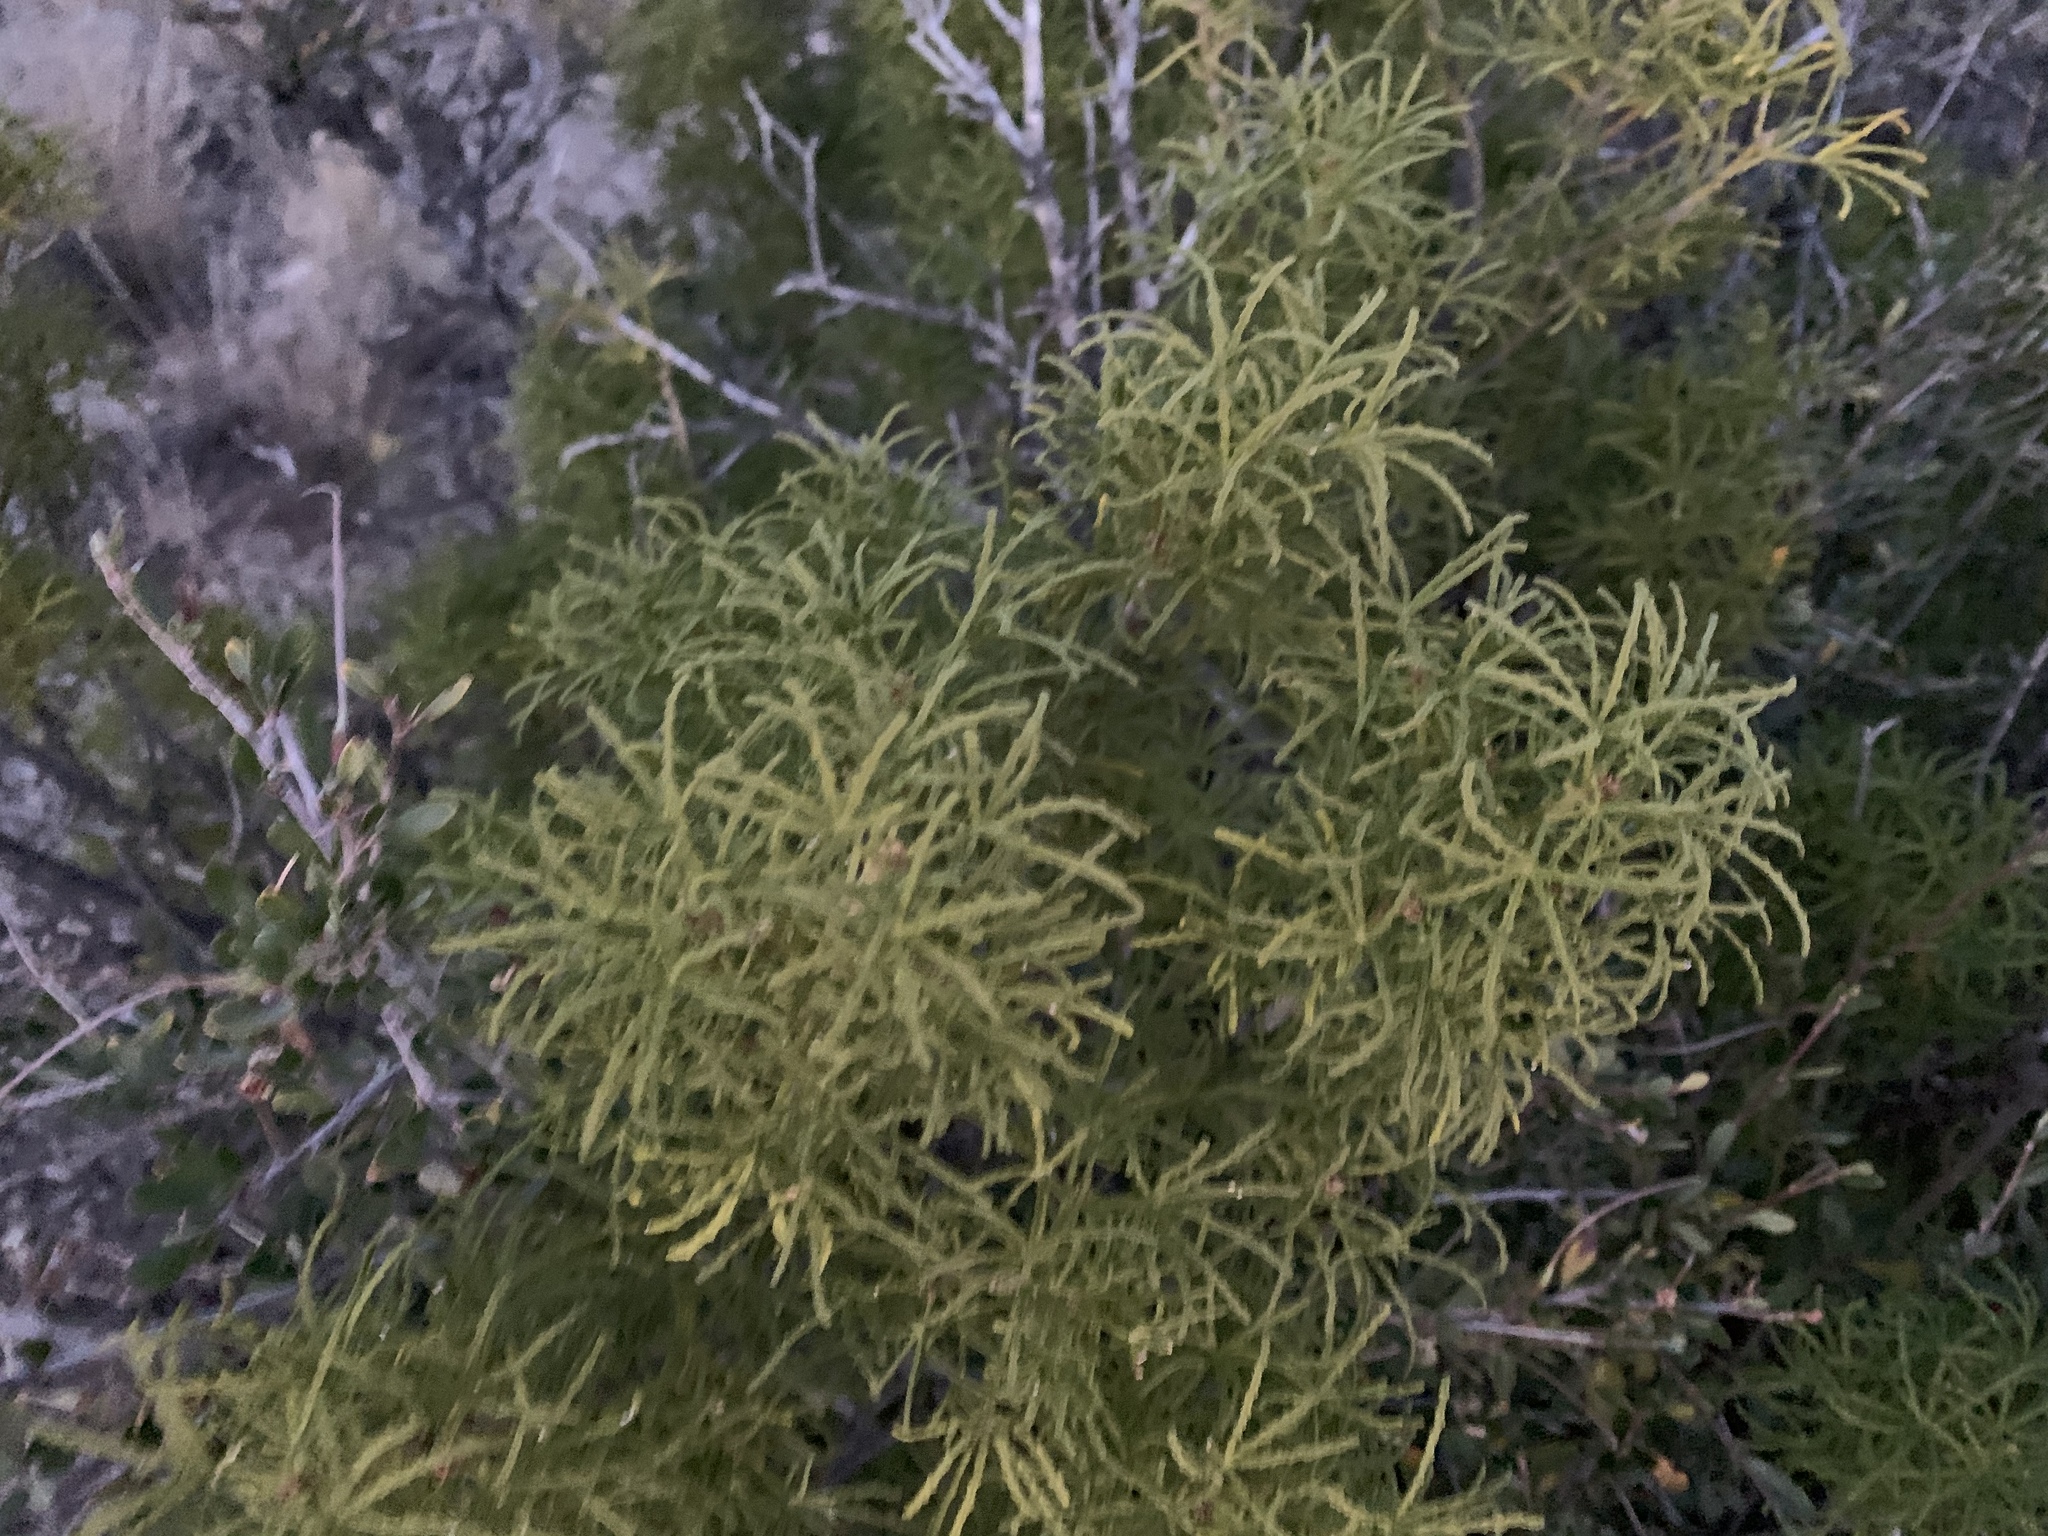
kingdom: Plantae
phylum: Tracheophyta
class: Magnoliopsida
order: Sapindales
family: Rutaceae
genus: Choisya
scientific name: Choisya dumosa
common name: Mexican-orange
